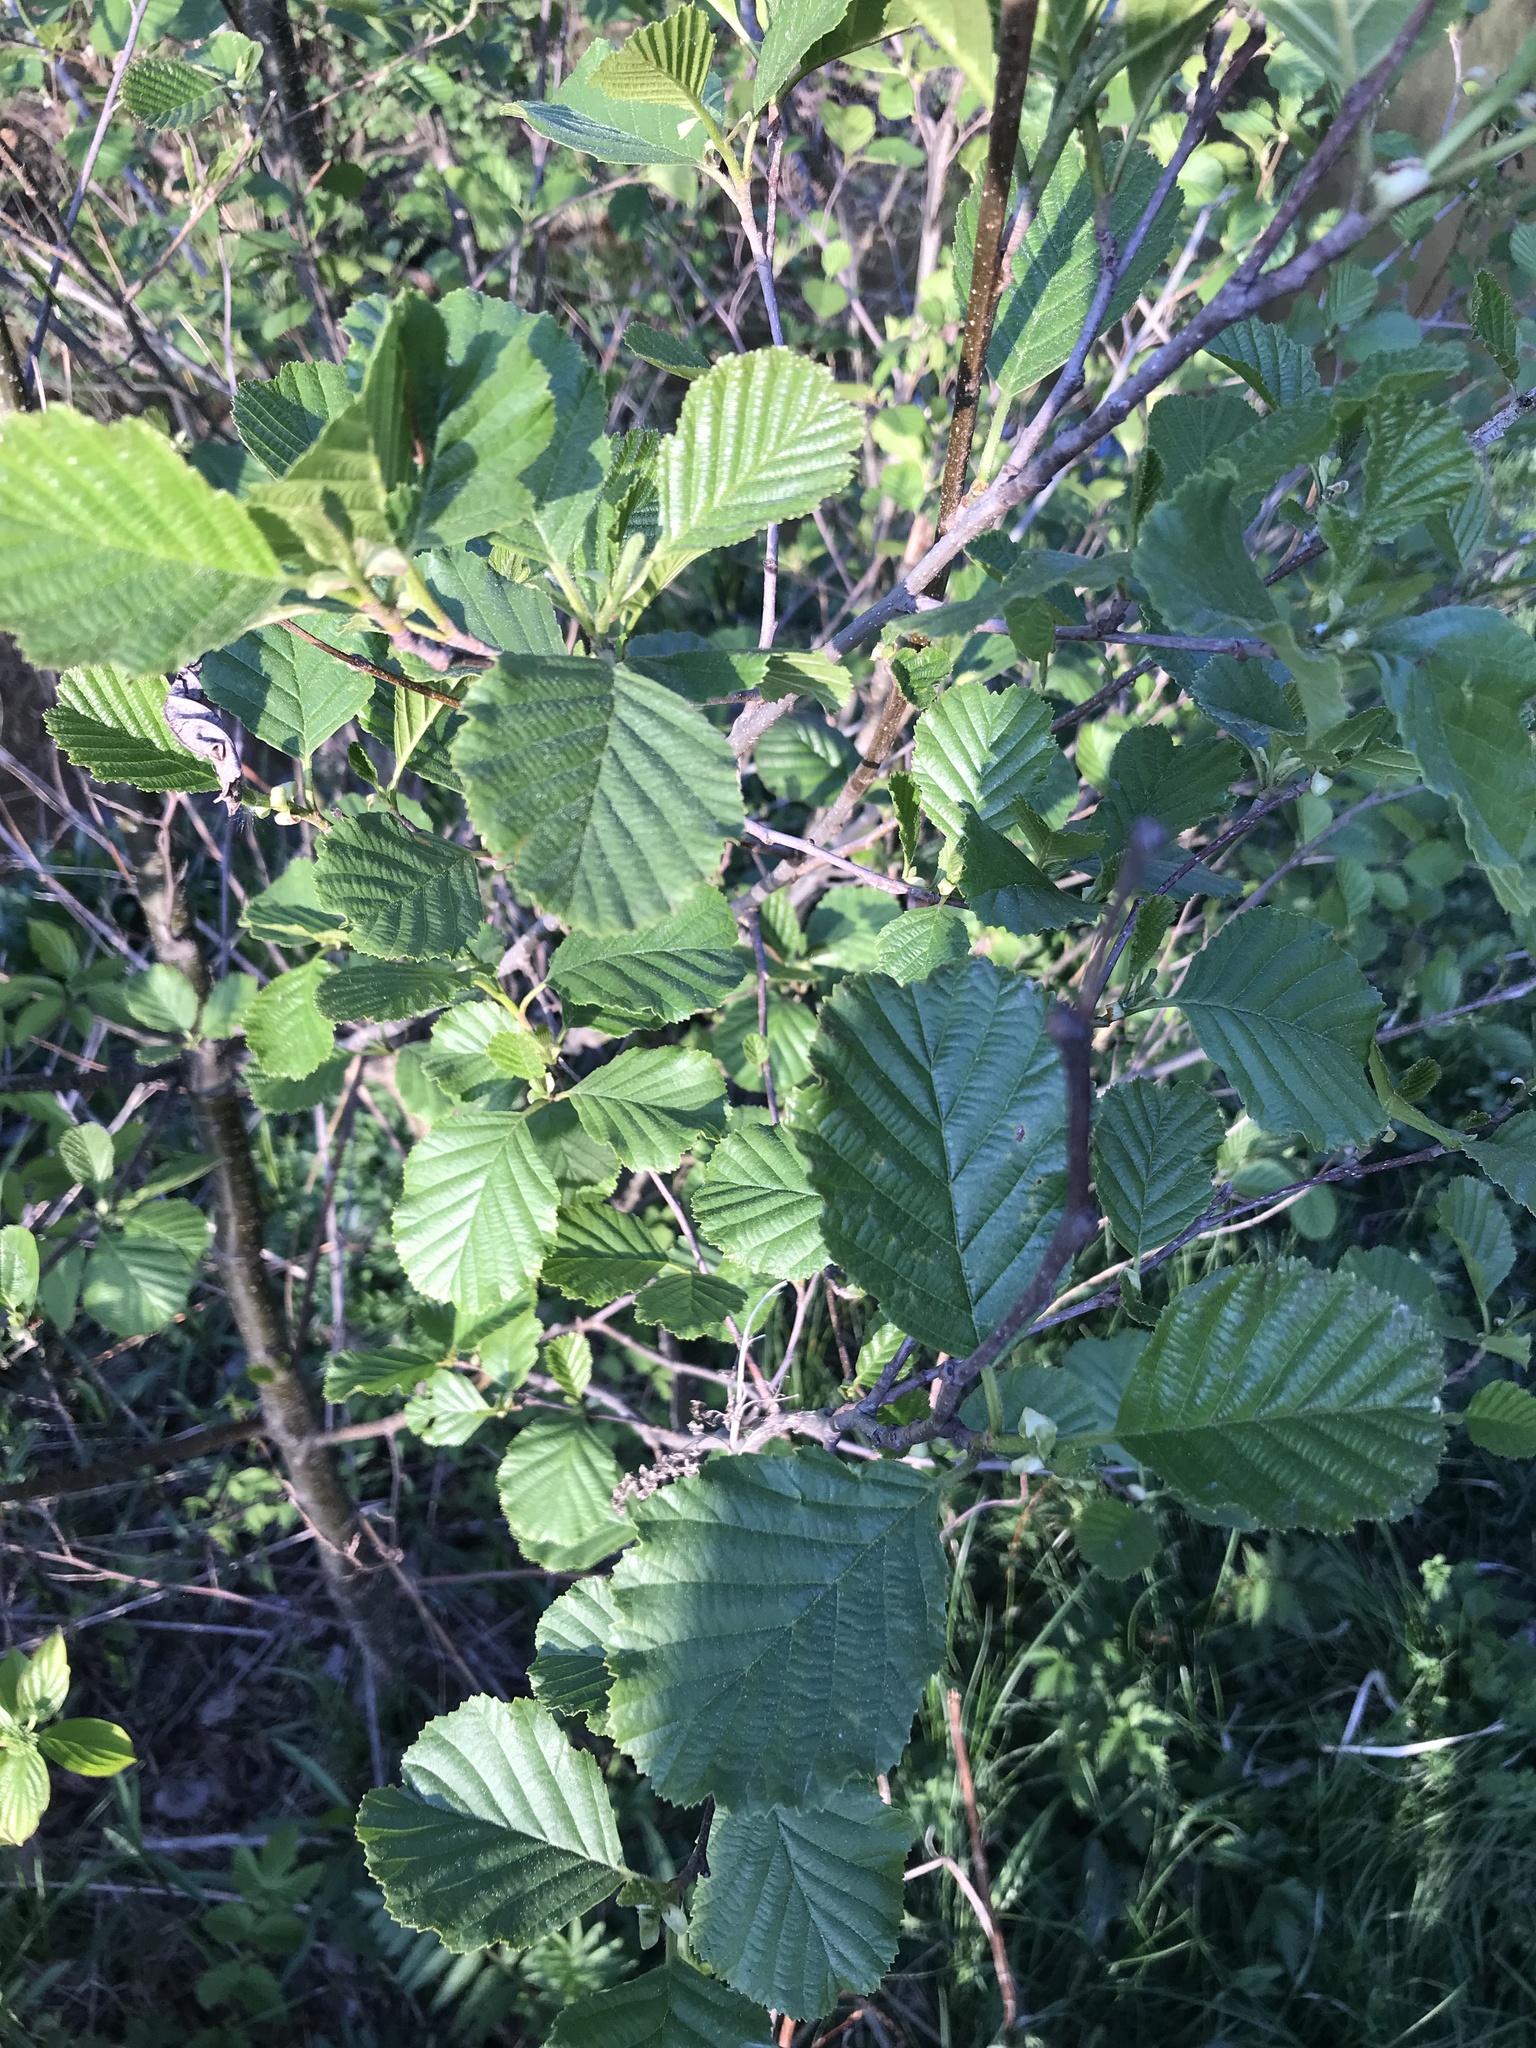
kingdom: Plantae
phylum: Tracheophyta
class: Magnoliopsida
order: Fagales
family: Betulaceae
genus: Alnus
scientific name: Alnus glutinosa
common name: Black alder
